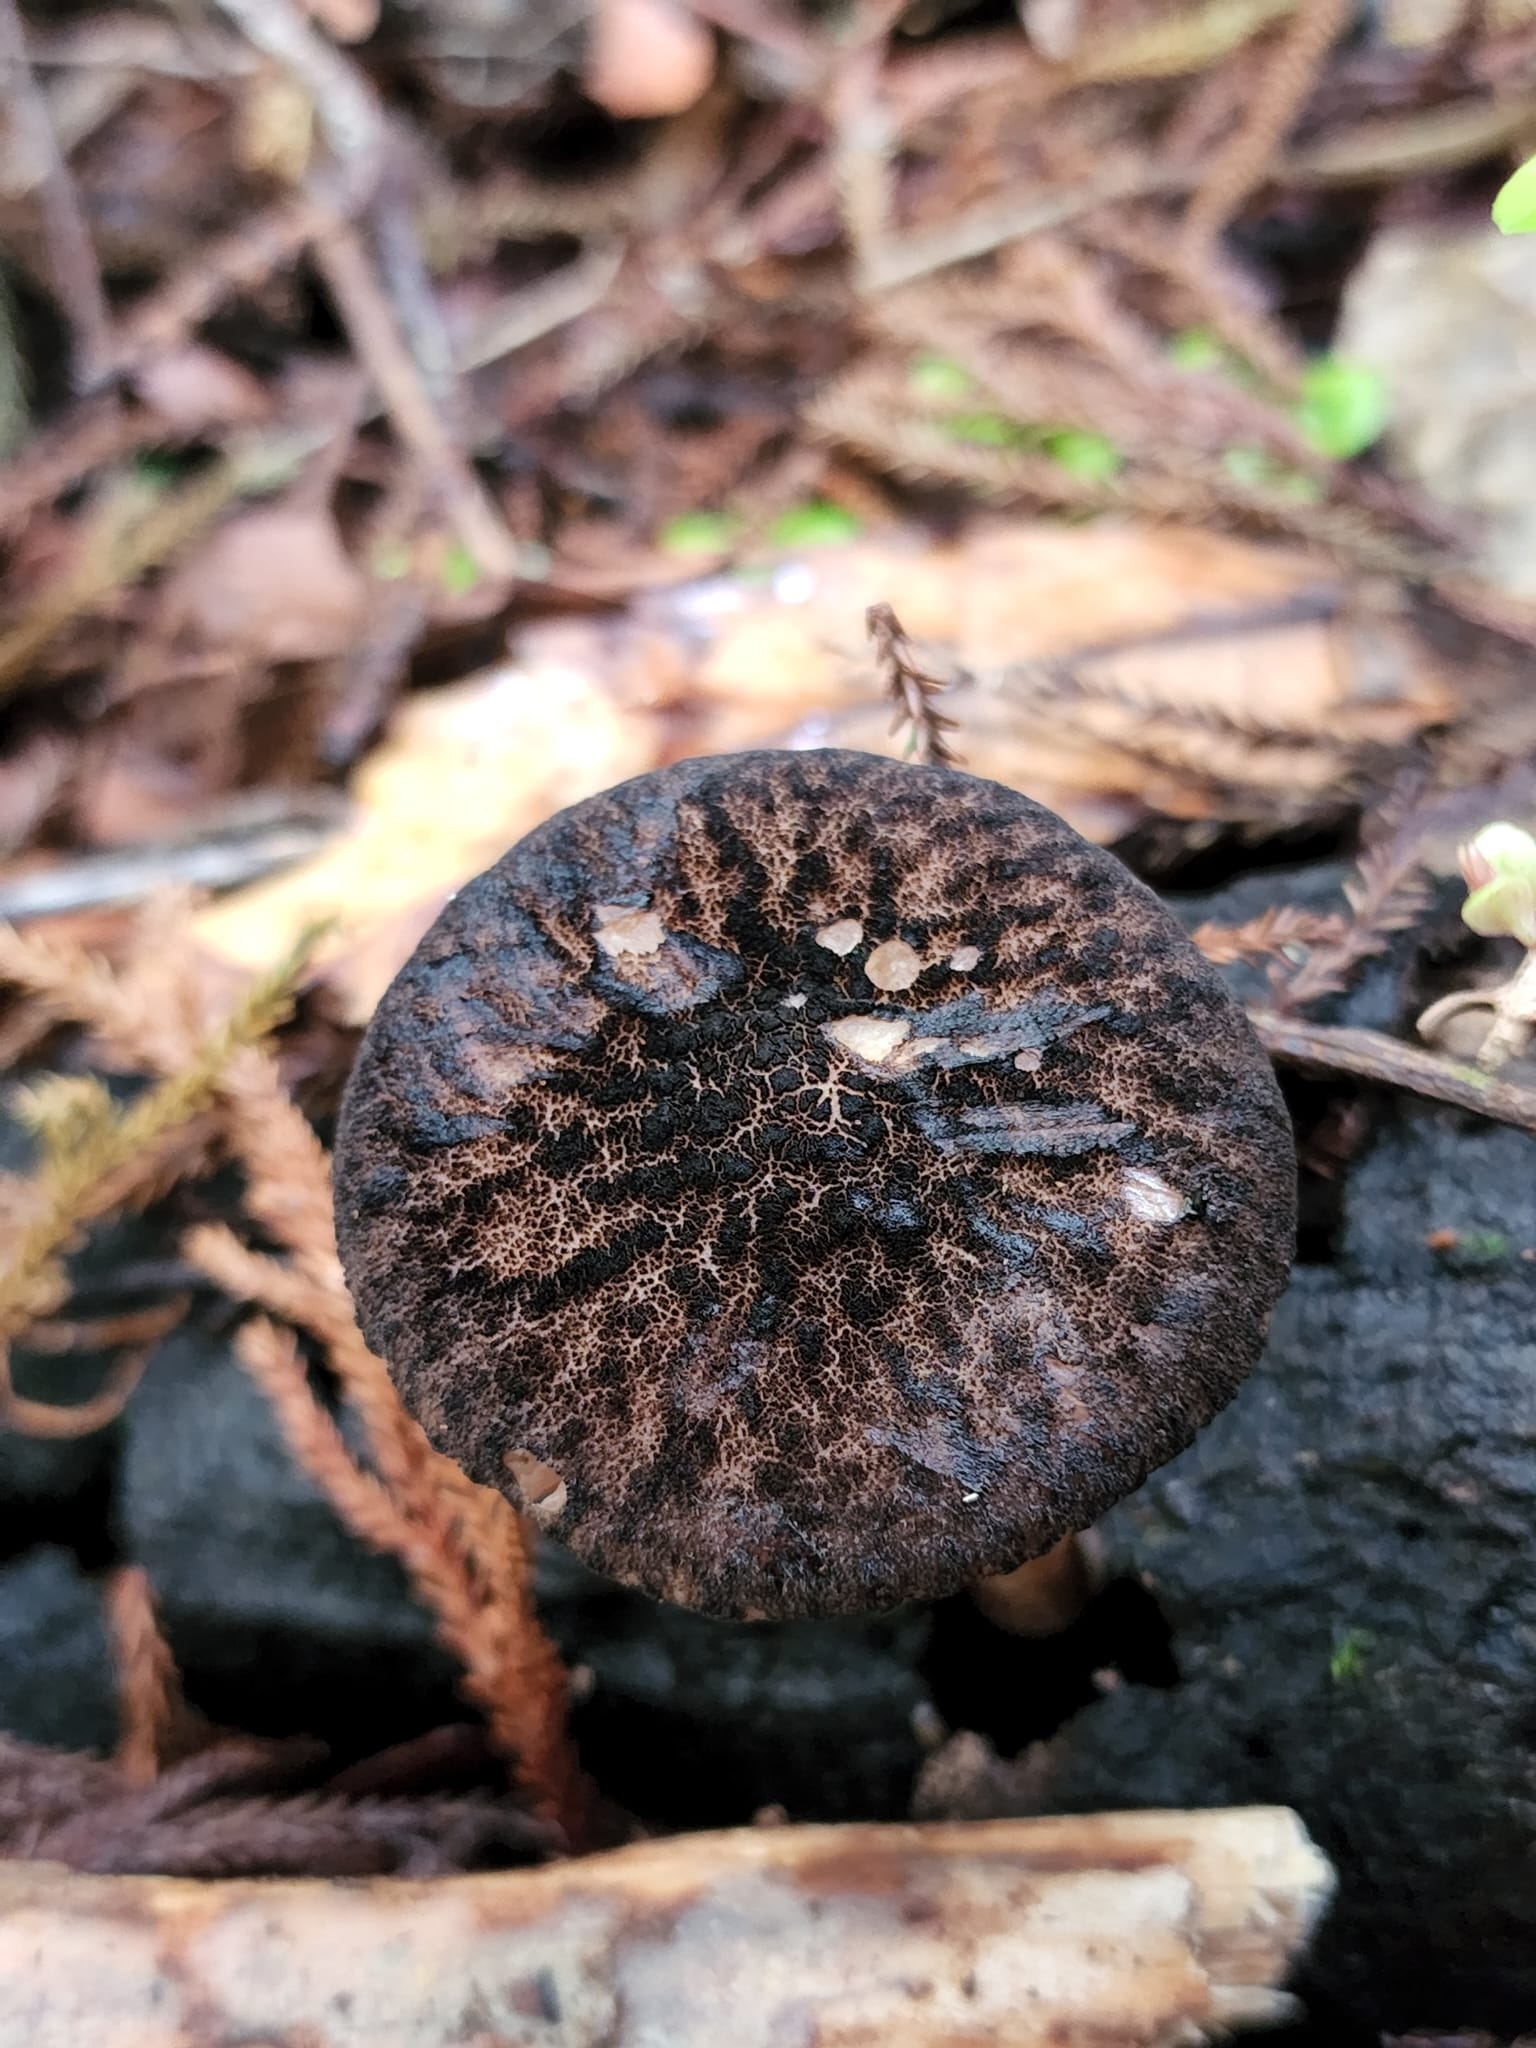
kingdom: Fungi
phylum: Basidiomycota
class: Agaricomycetes
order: Agaricales
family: Pluteaceae
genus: Pluteus
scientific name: Pluteus perroseus
